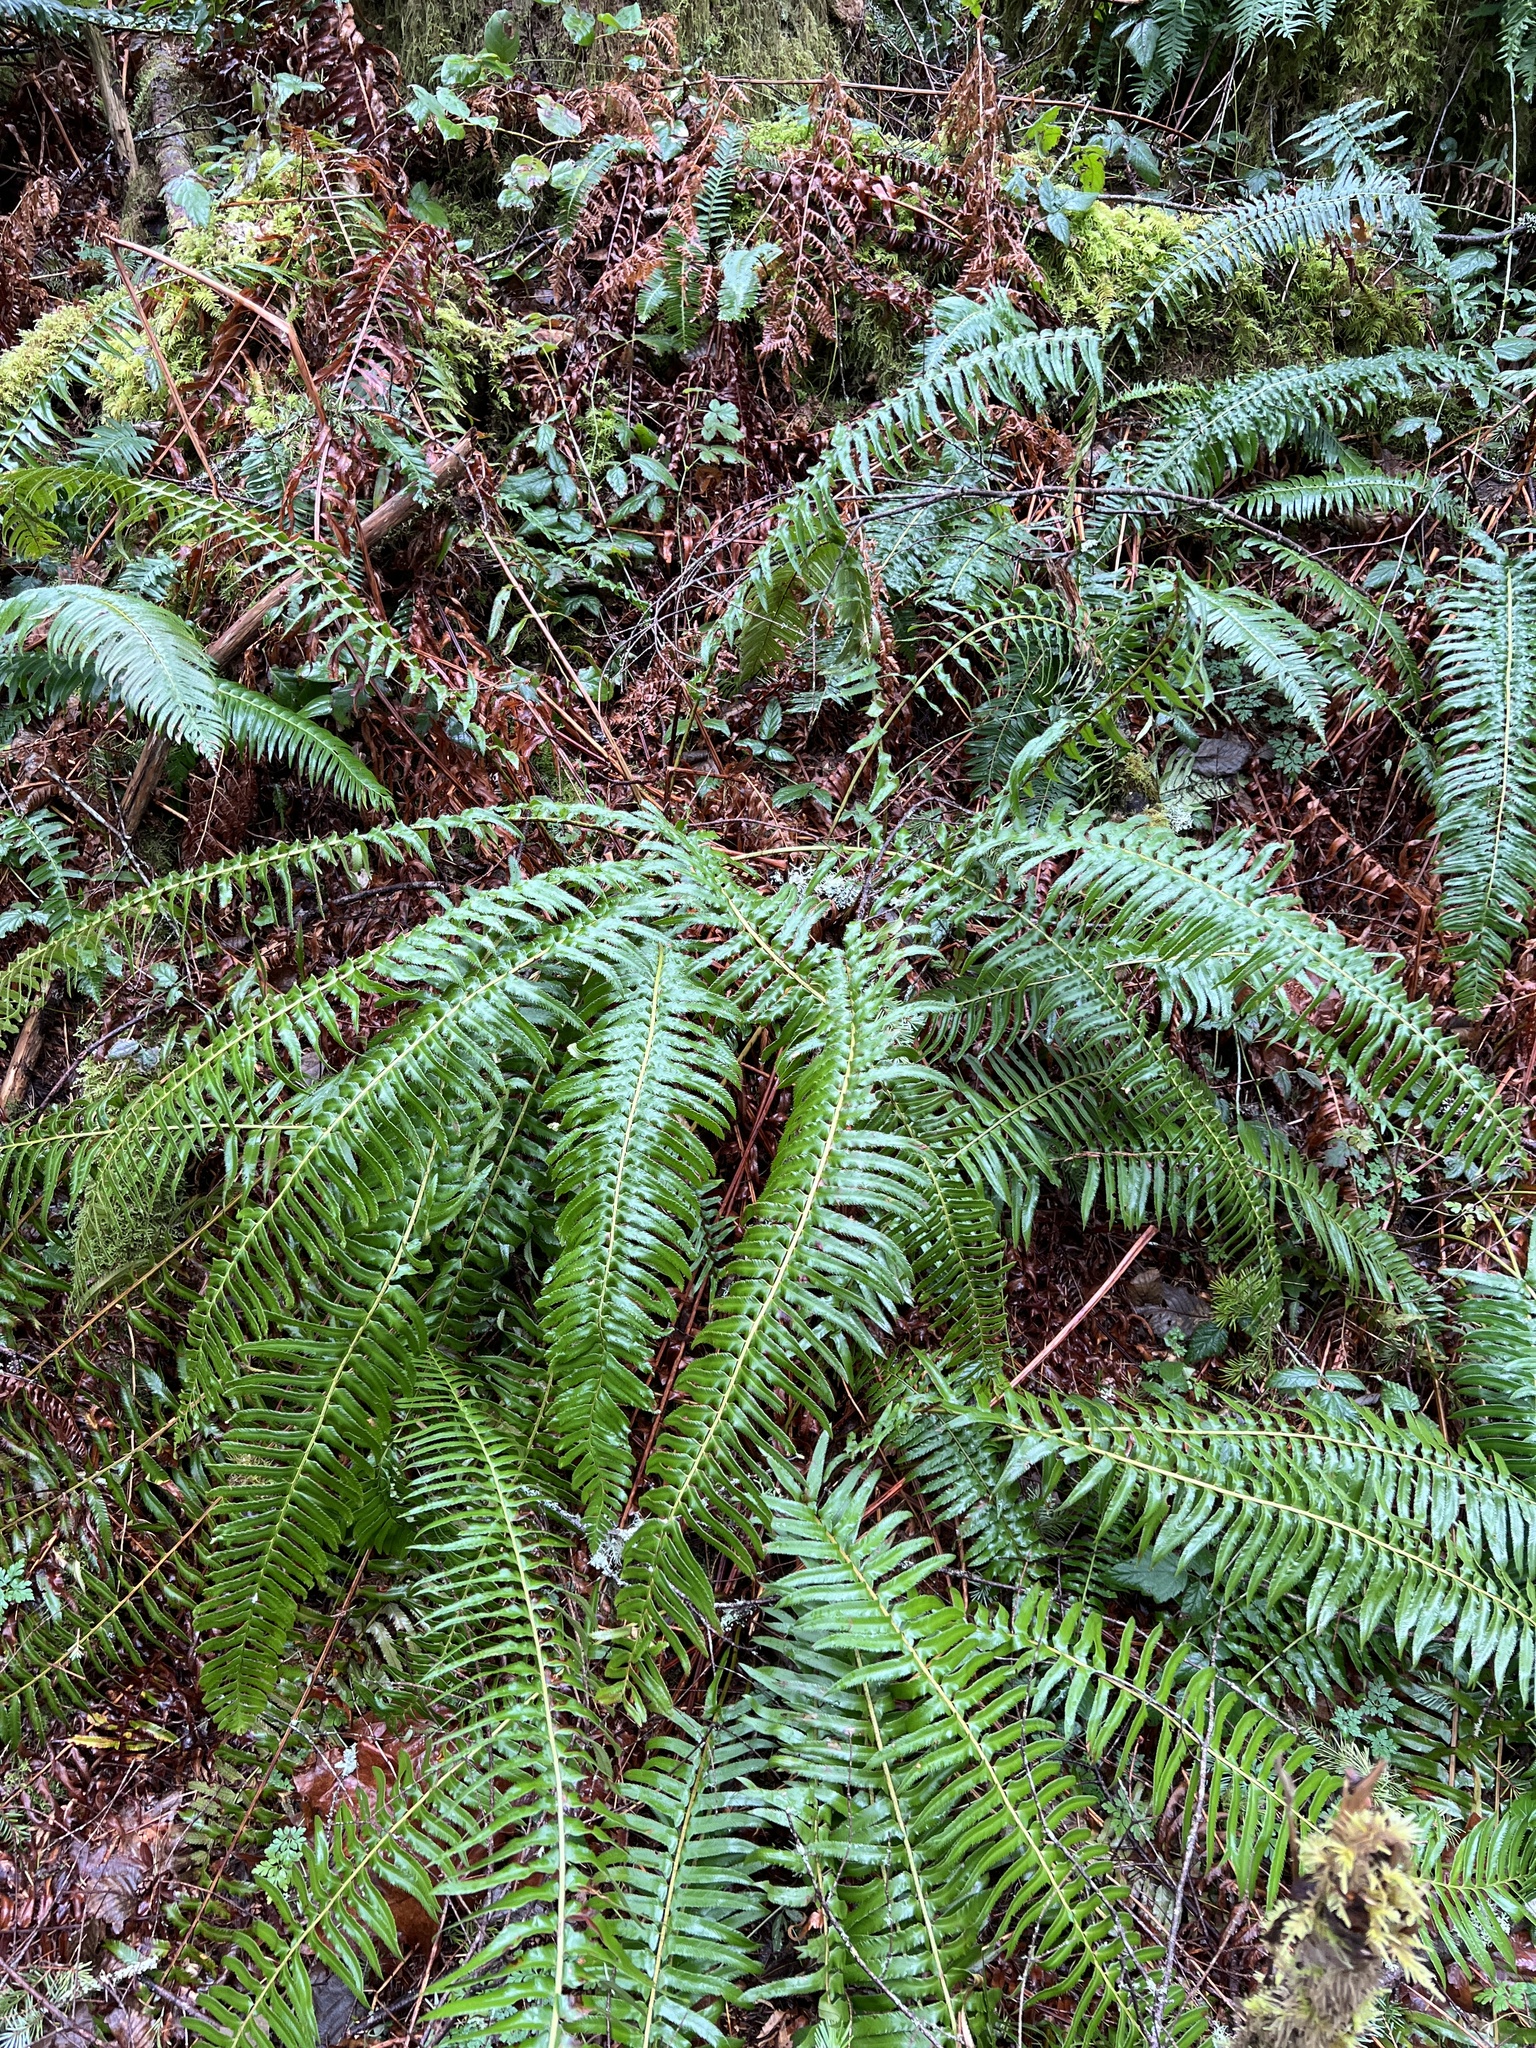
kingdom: Plantae
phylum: Tracheophyta
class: Polypodiopsida
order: Polypodiales
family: Dryopteridaceae
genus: Polystichum
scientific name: Polystichum munitum
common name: Western sword-fern
